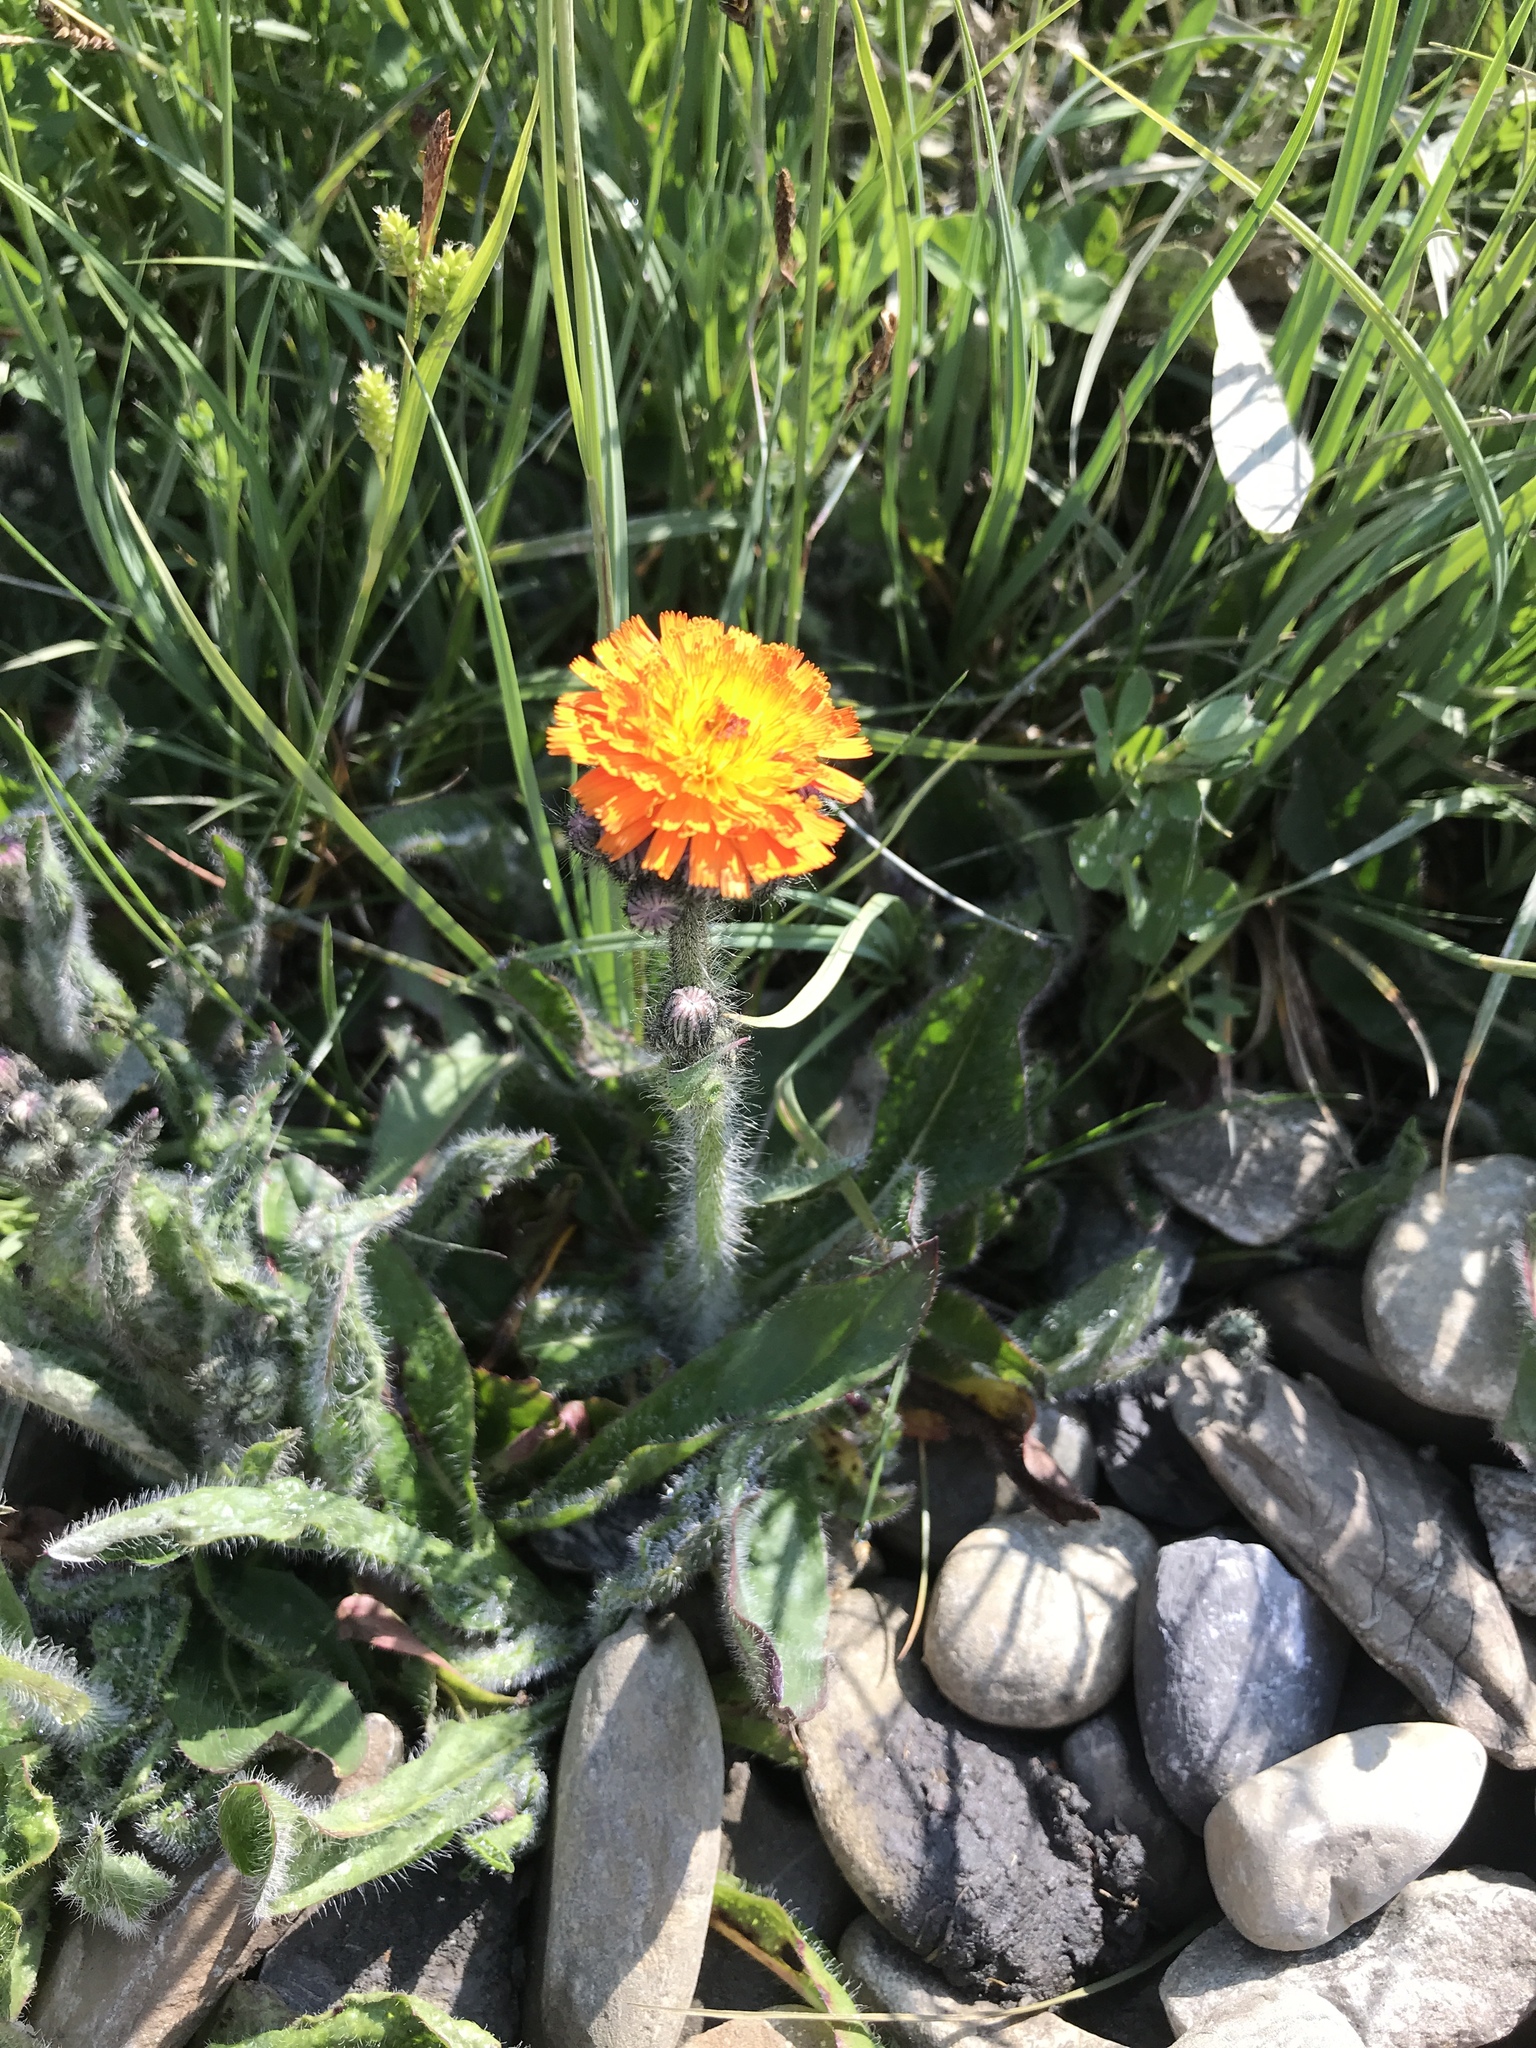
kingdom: Plantae
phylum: Tracheophyta
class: Magnoliopsida
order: Asterales
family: Asteraceae
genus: Pilosella
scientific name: Pilosella aurantiaca
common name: Fox-and-cubs
